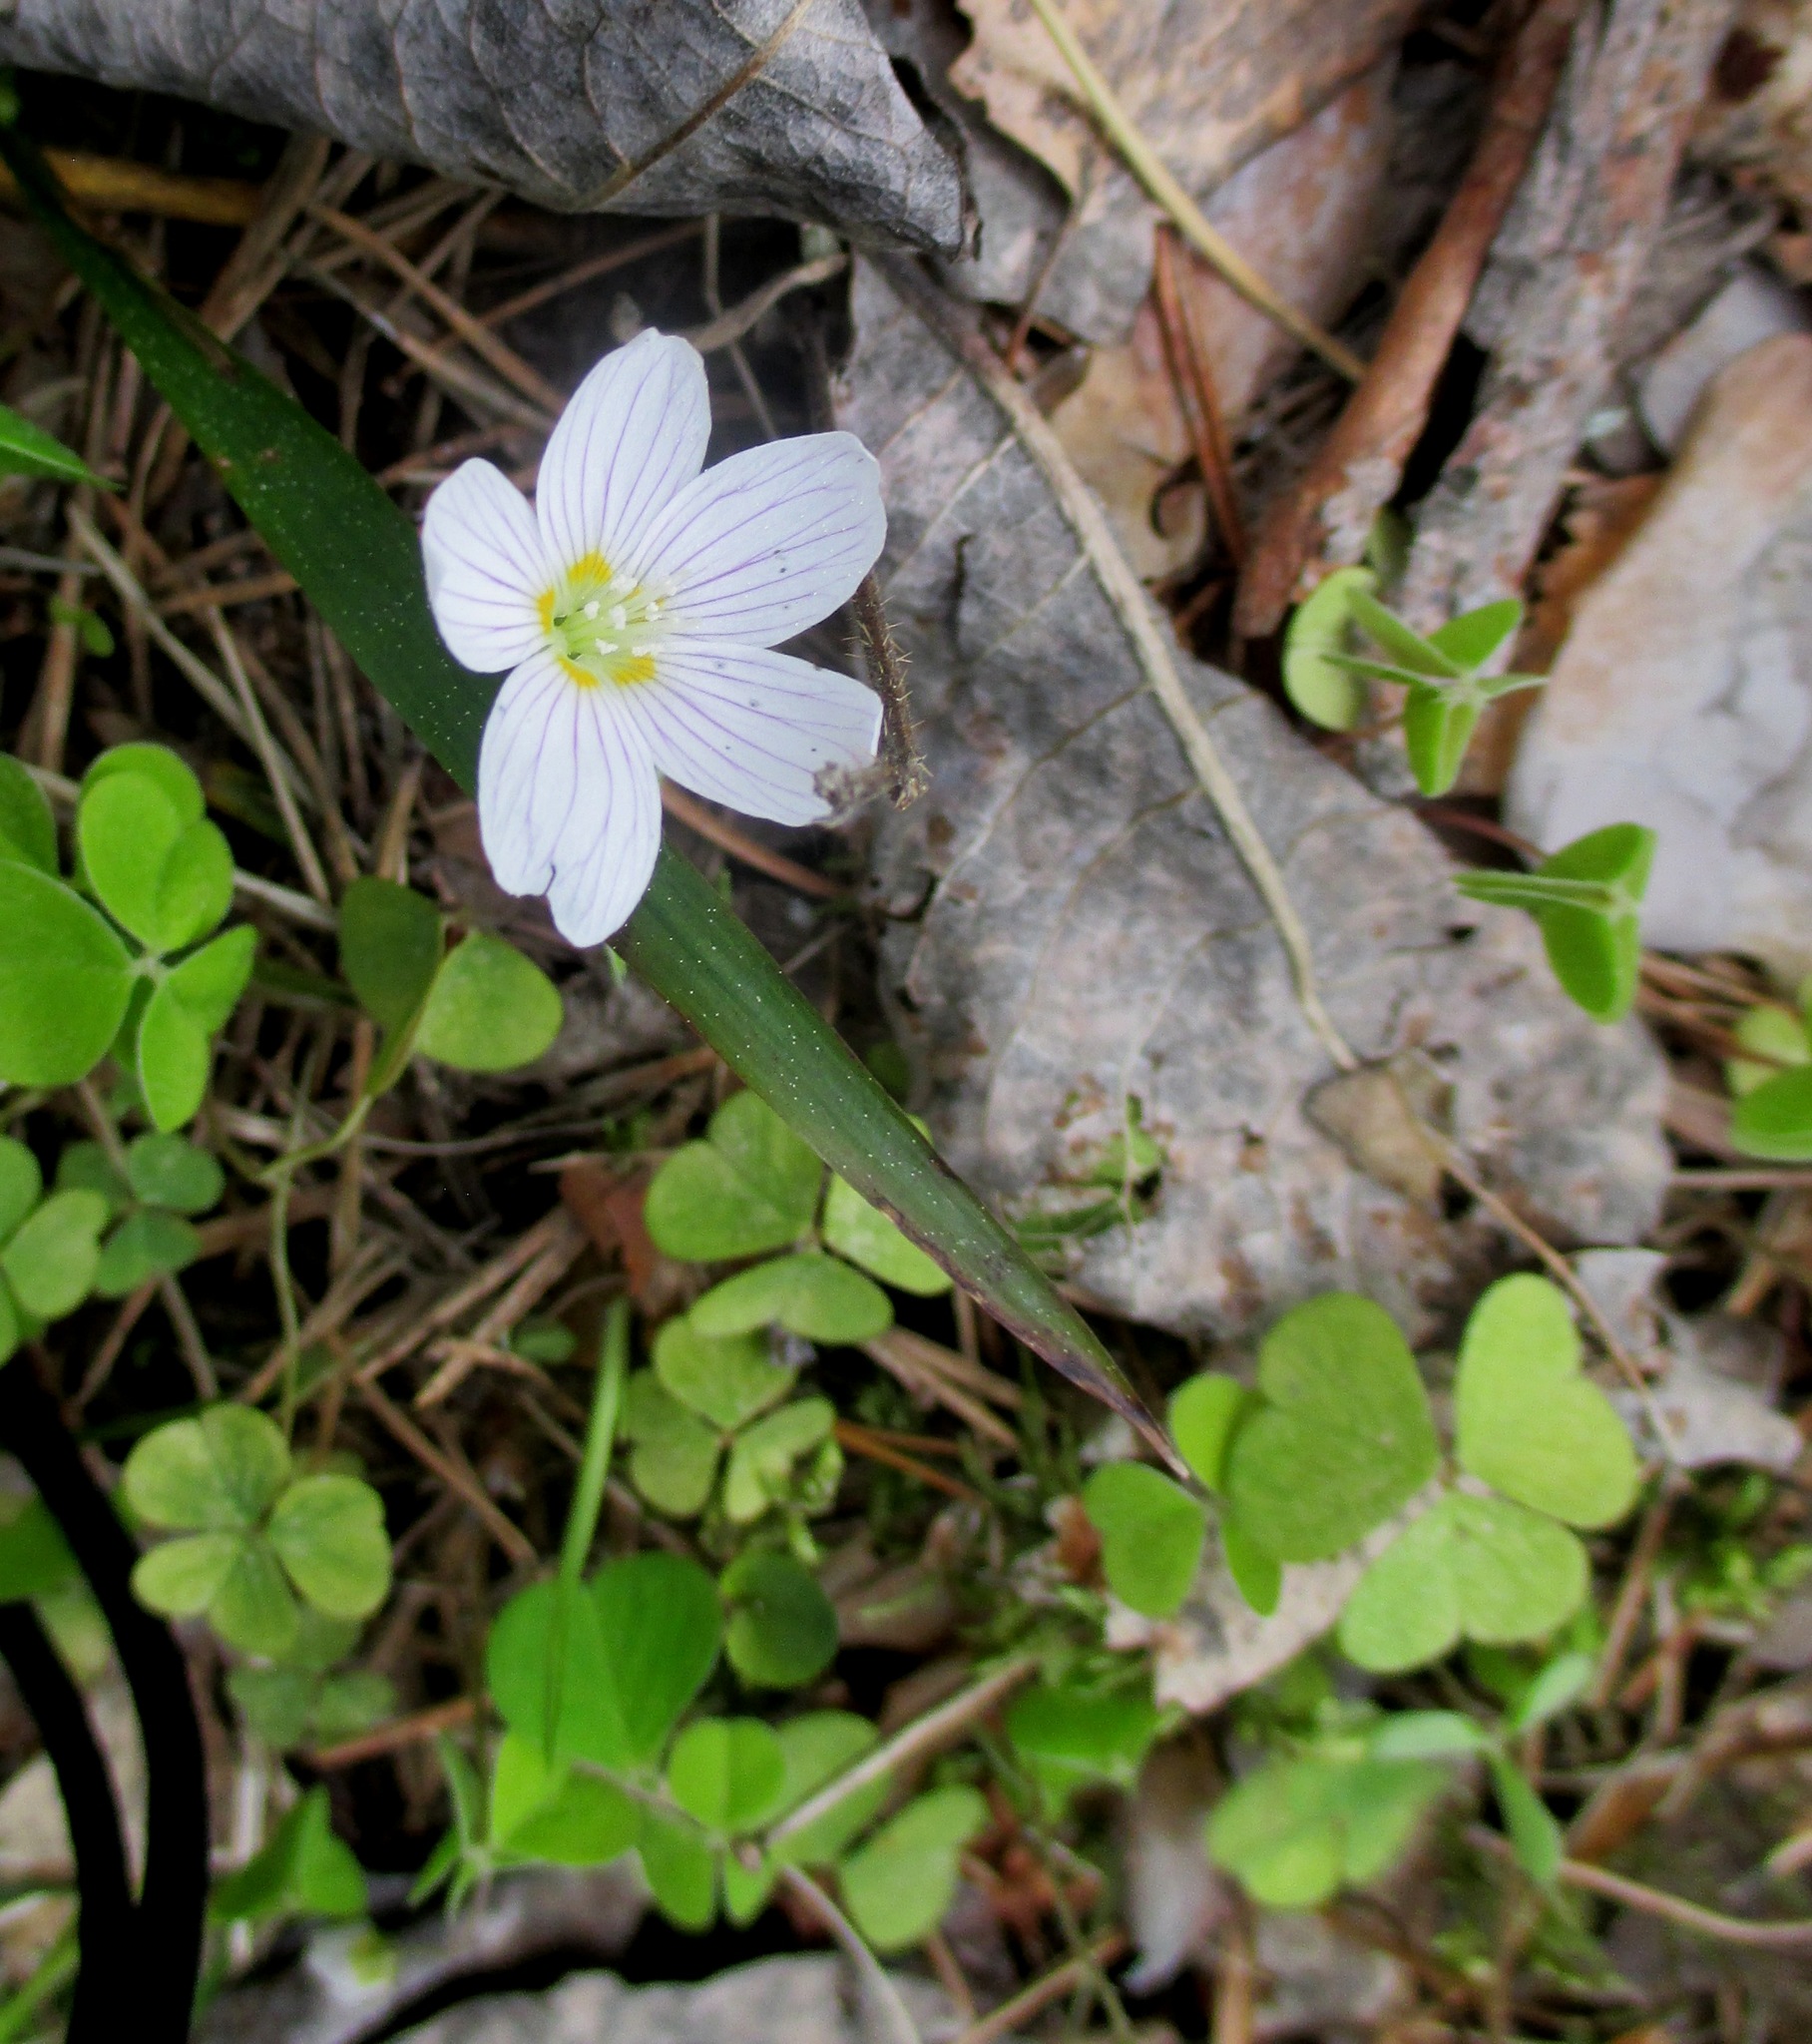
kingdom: Plantae
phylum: Tracheophyta
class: Magnoliopsida
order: Oxalidales
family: Oxalidaceae
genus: Oxalis
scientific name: Oxalis acetosella
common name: Wood-sorrel
